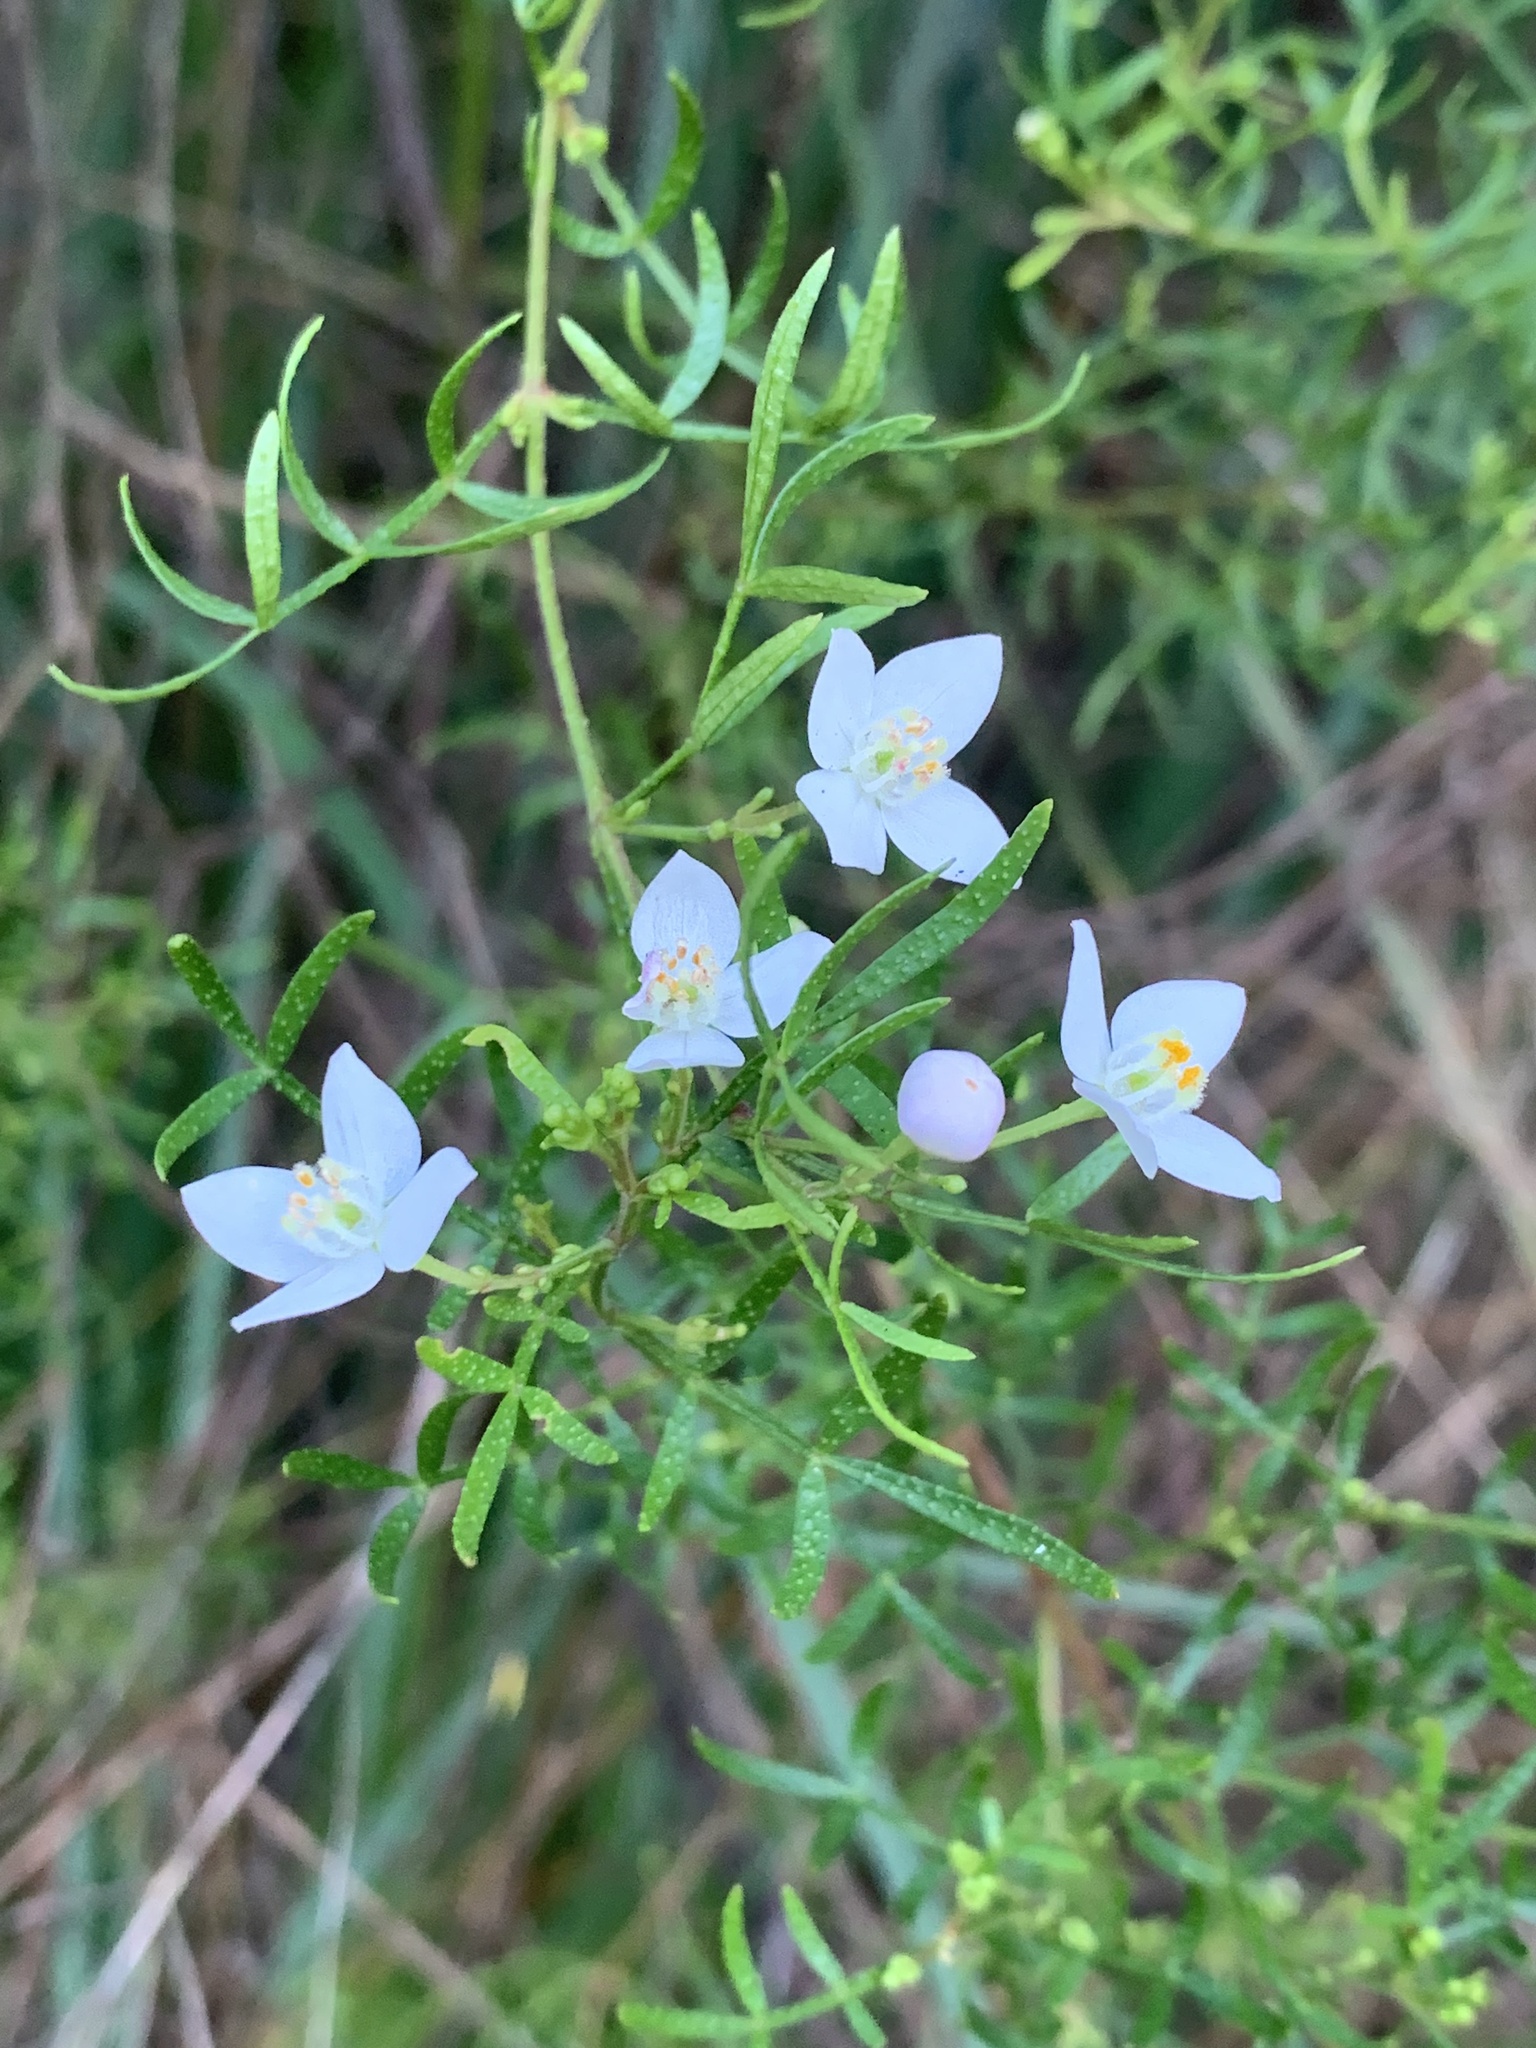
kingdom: Plantae
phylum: Tracheophyta
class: Magnoliopsida
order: Sapindales
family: Rutaceae
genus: Boronia
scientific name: Boronia muelleri
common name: Forest boronia
